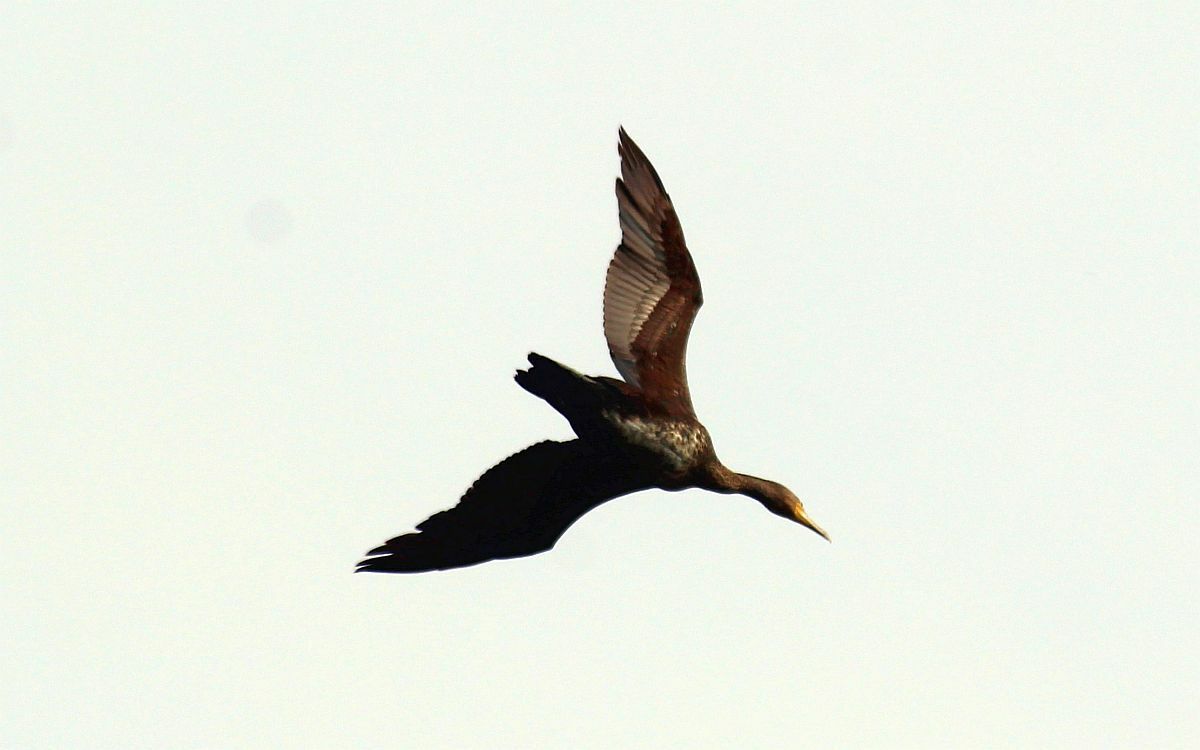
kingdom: Animalia
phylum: Chordata
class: Aves
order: Suliformes
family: Phalacrocoracidae
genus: Phalacrocorax
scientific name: Phalacrocorax carbo
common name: Great cormorant
